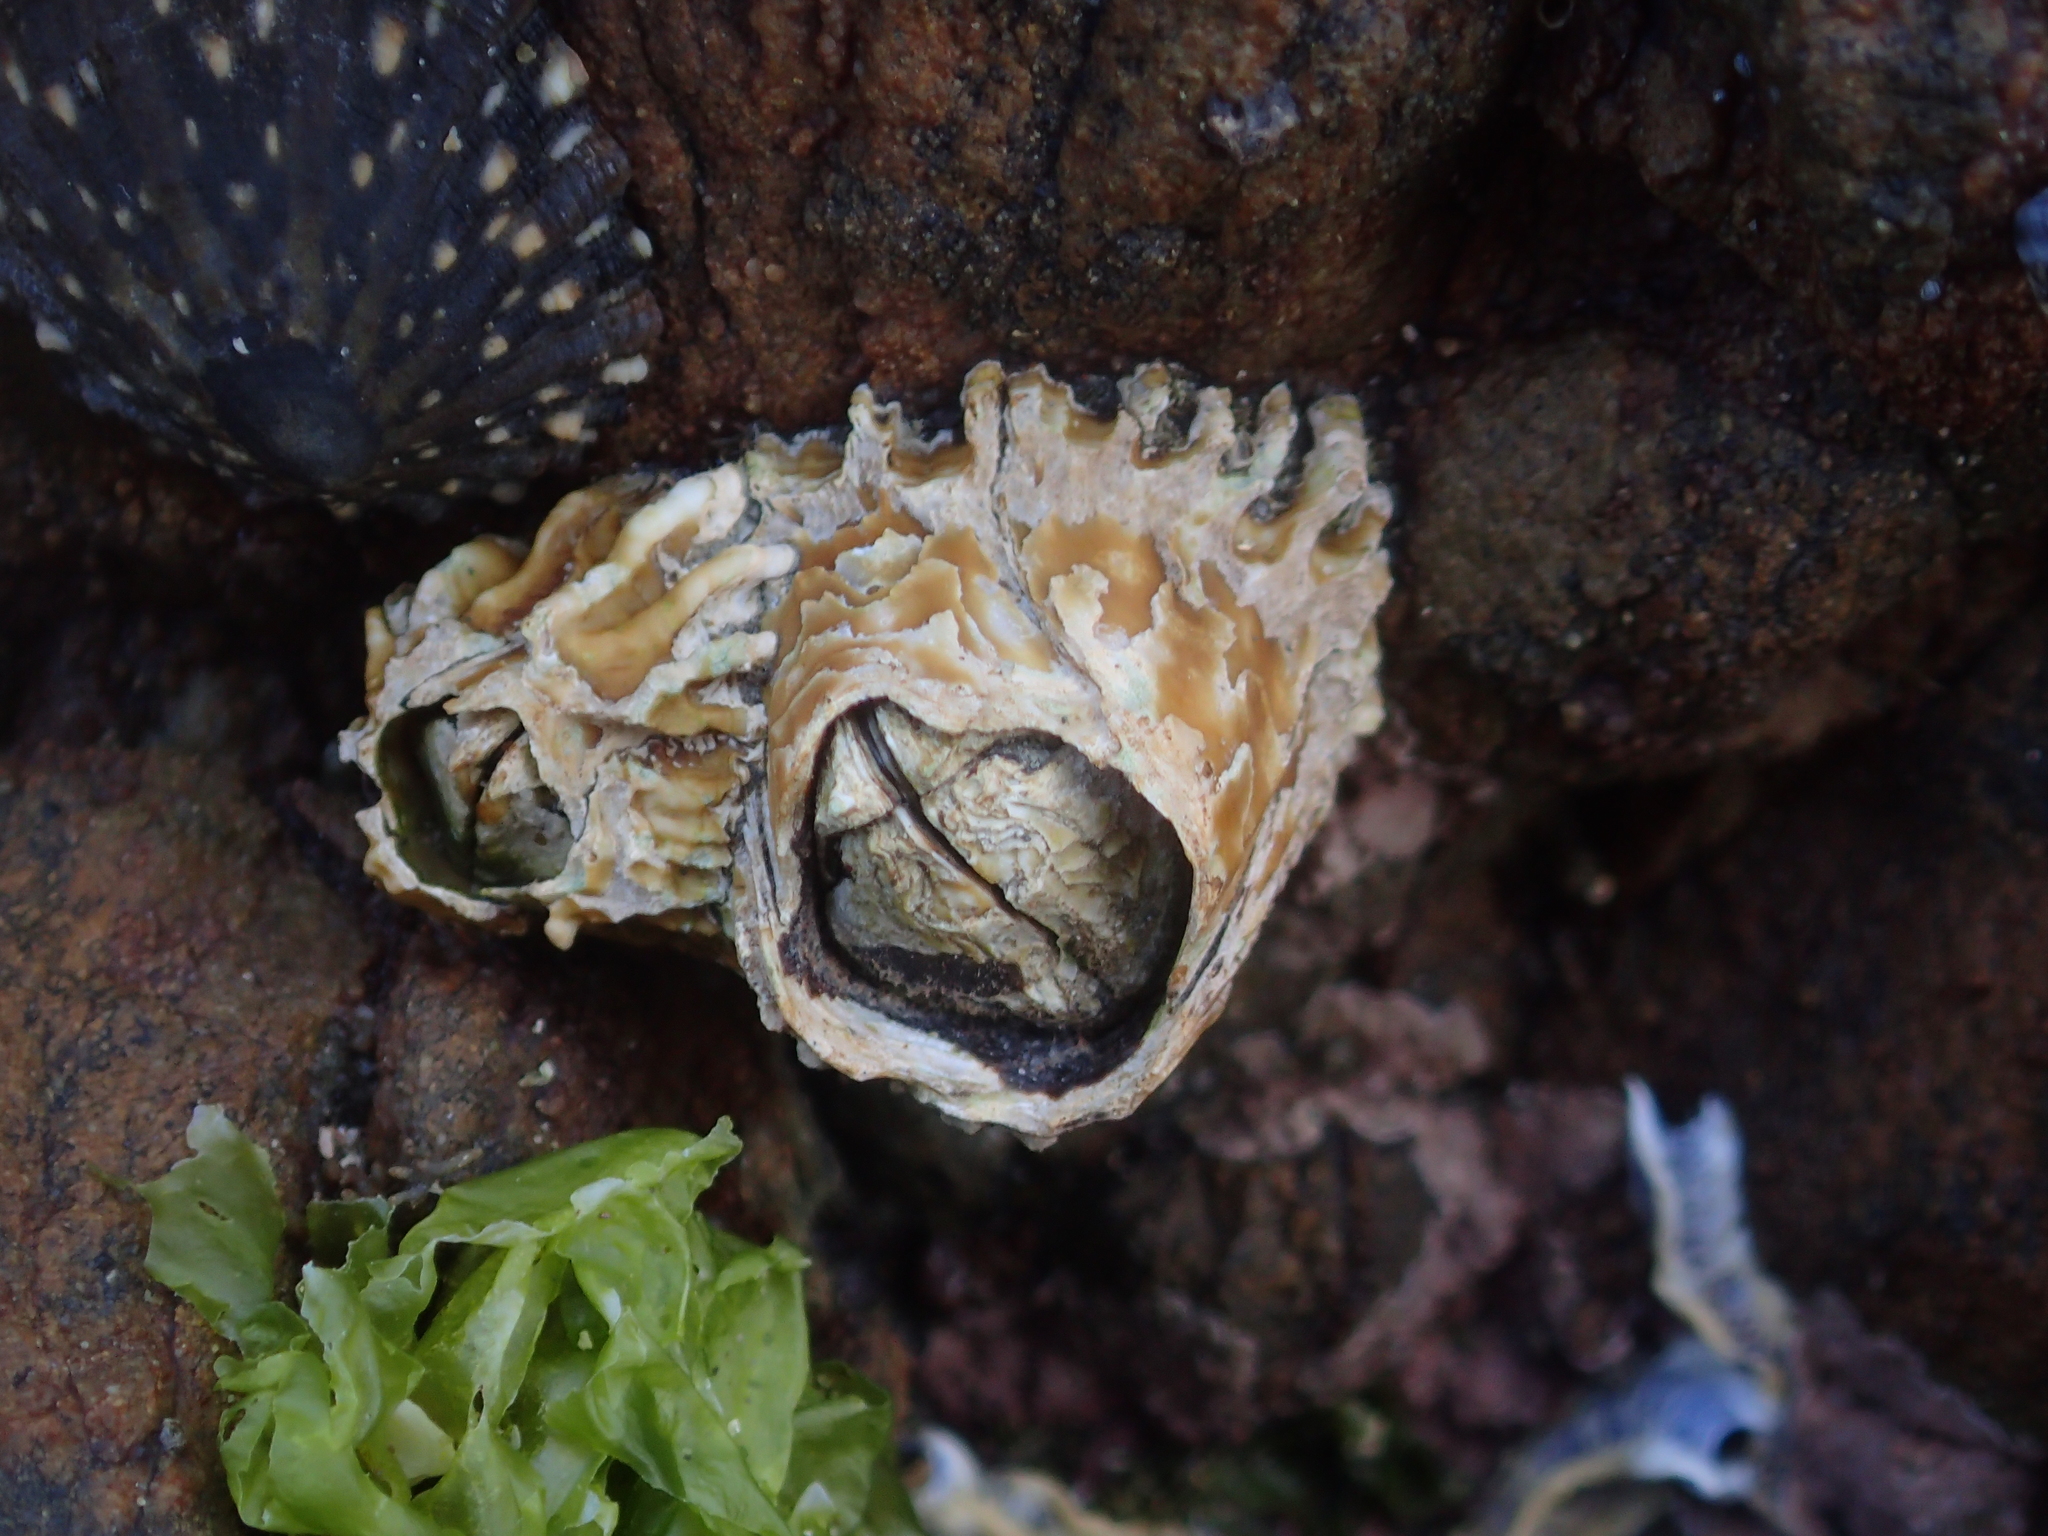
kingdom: Animalia
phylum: Arthropoda
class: Maxillopoda
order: Sessilia
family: Tetraclitidae
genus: Epopella
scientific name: Epopella plicata
